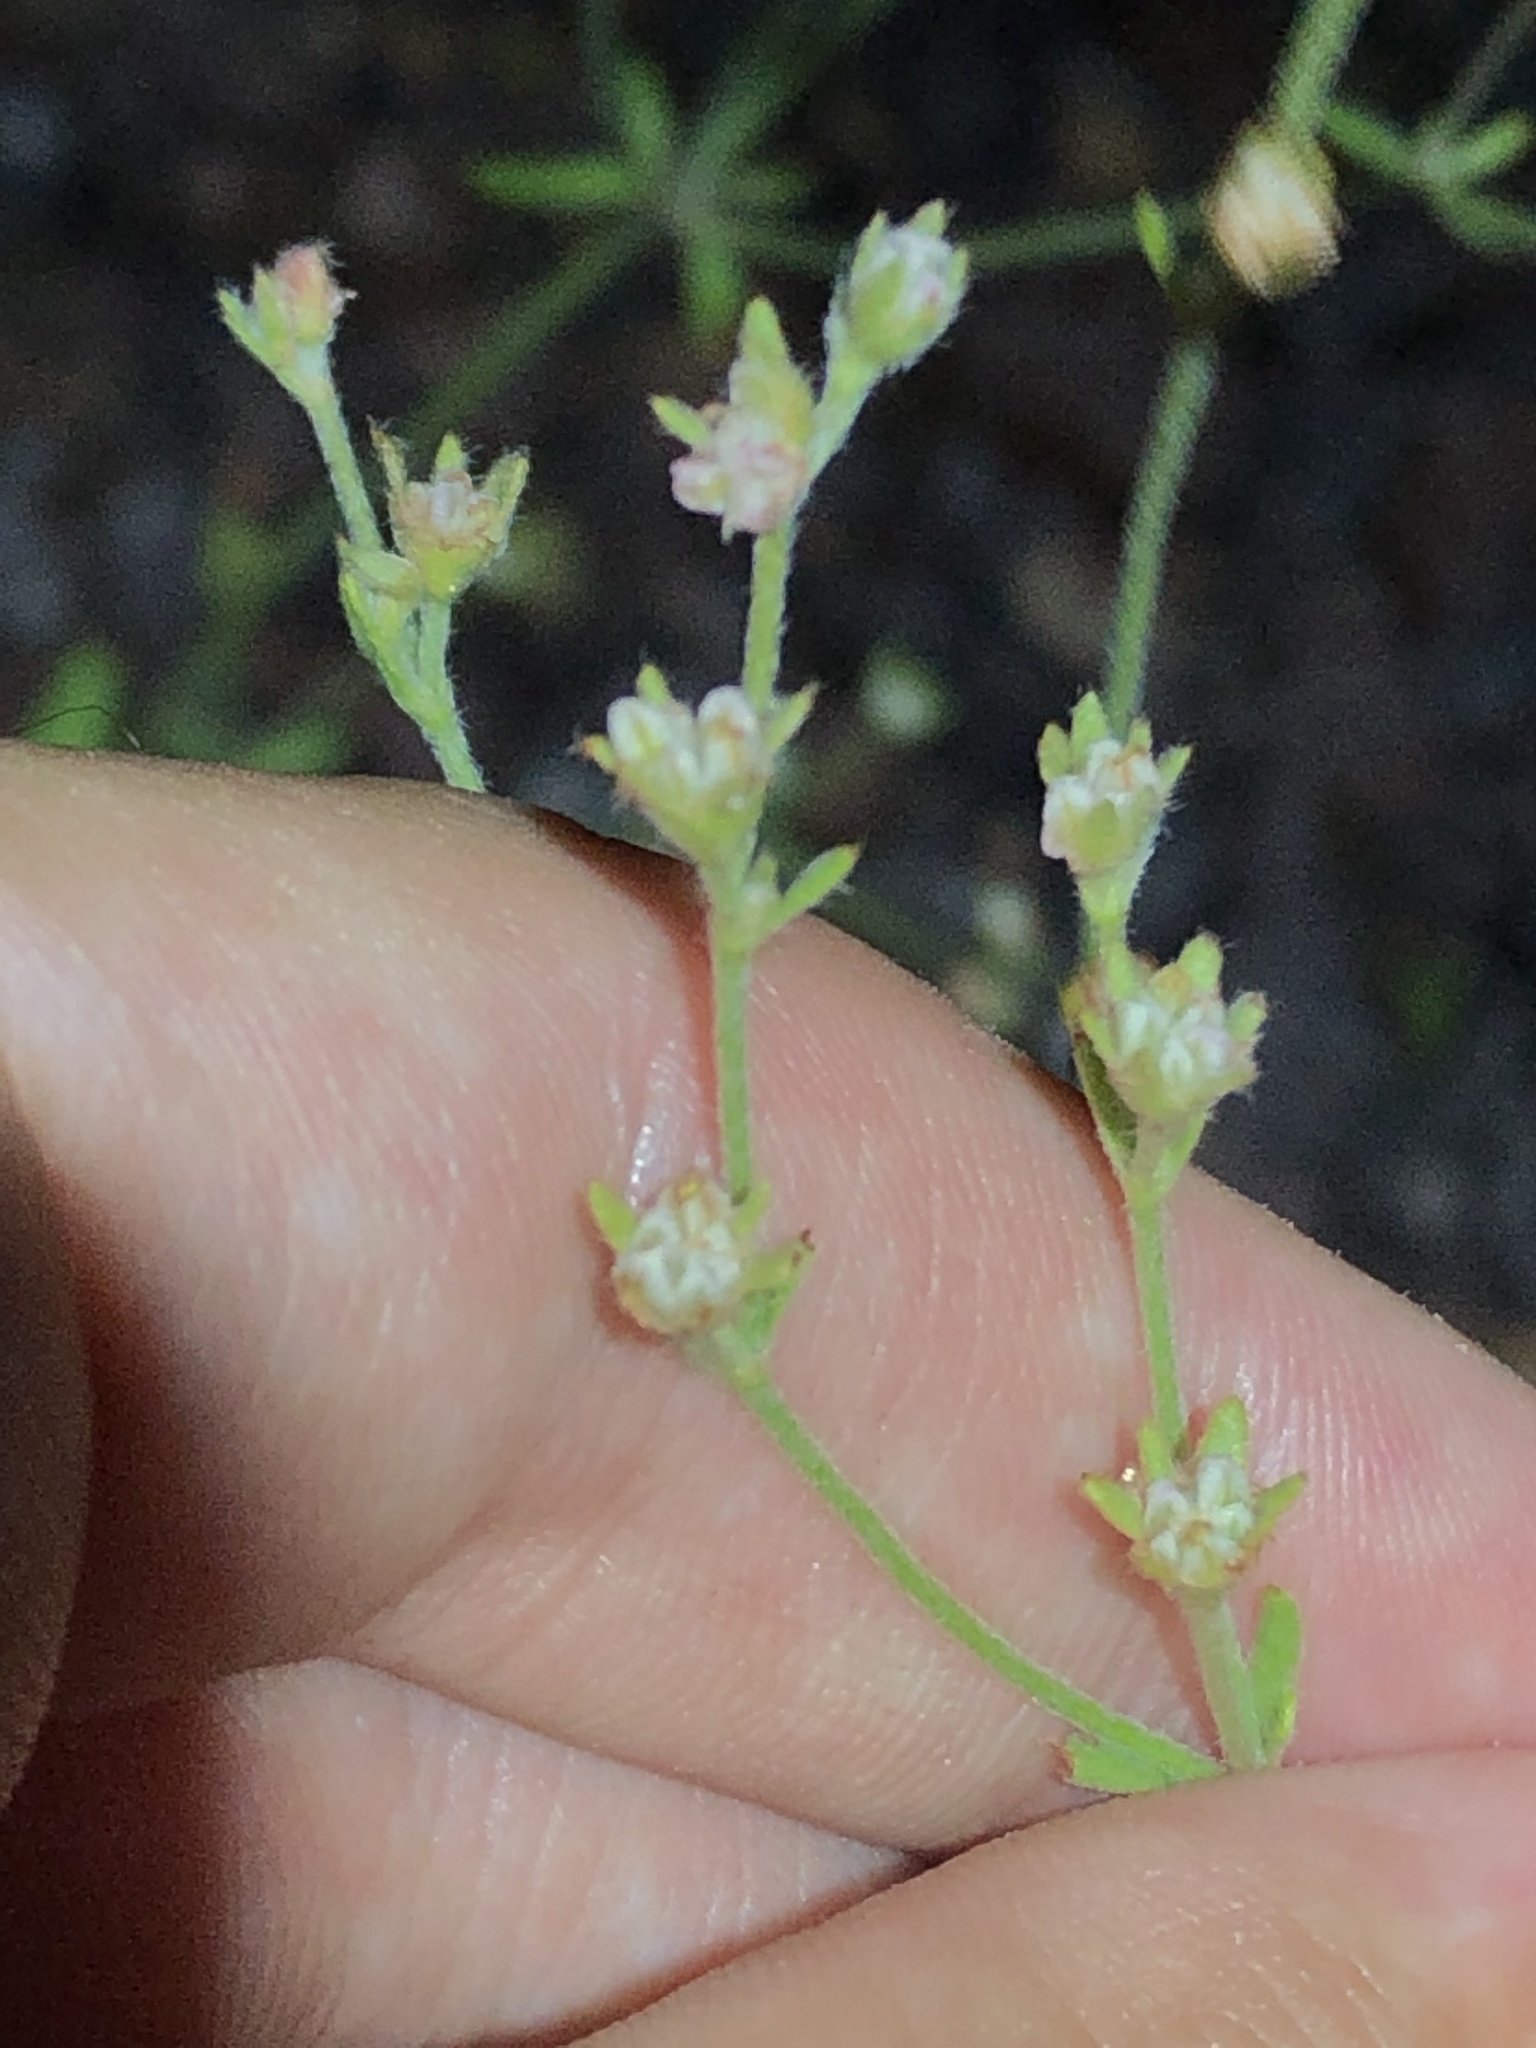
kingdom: Plantae
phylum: Tracheophyta
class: Magnoliopsida
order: Caryophyllales
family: Polygonaceae
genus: Eriogonum
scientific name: Eriogonum abertianum
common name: Abert's wild buckwheat
